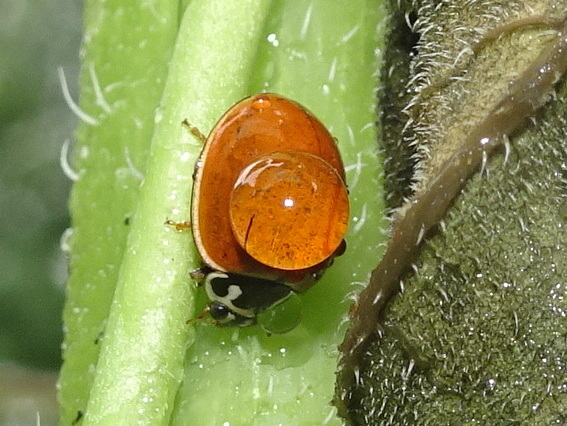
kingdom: Animalia
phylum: Arthropoda
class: Insecta
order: Coleoptera
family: Coccinellidae
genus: Cycloneda
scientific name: Cycloneda munda
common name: Polished lady beetle
